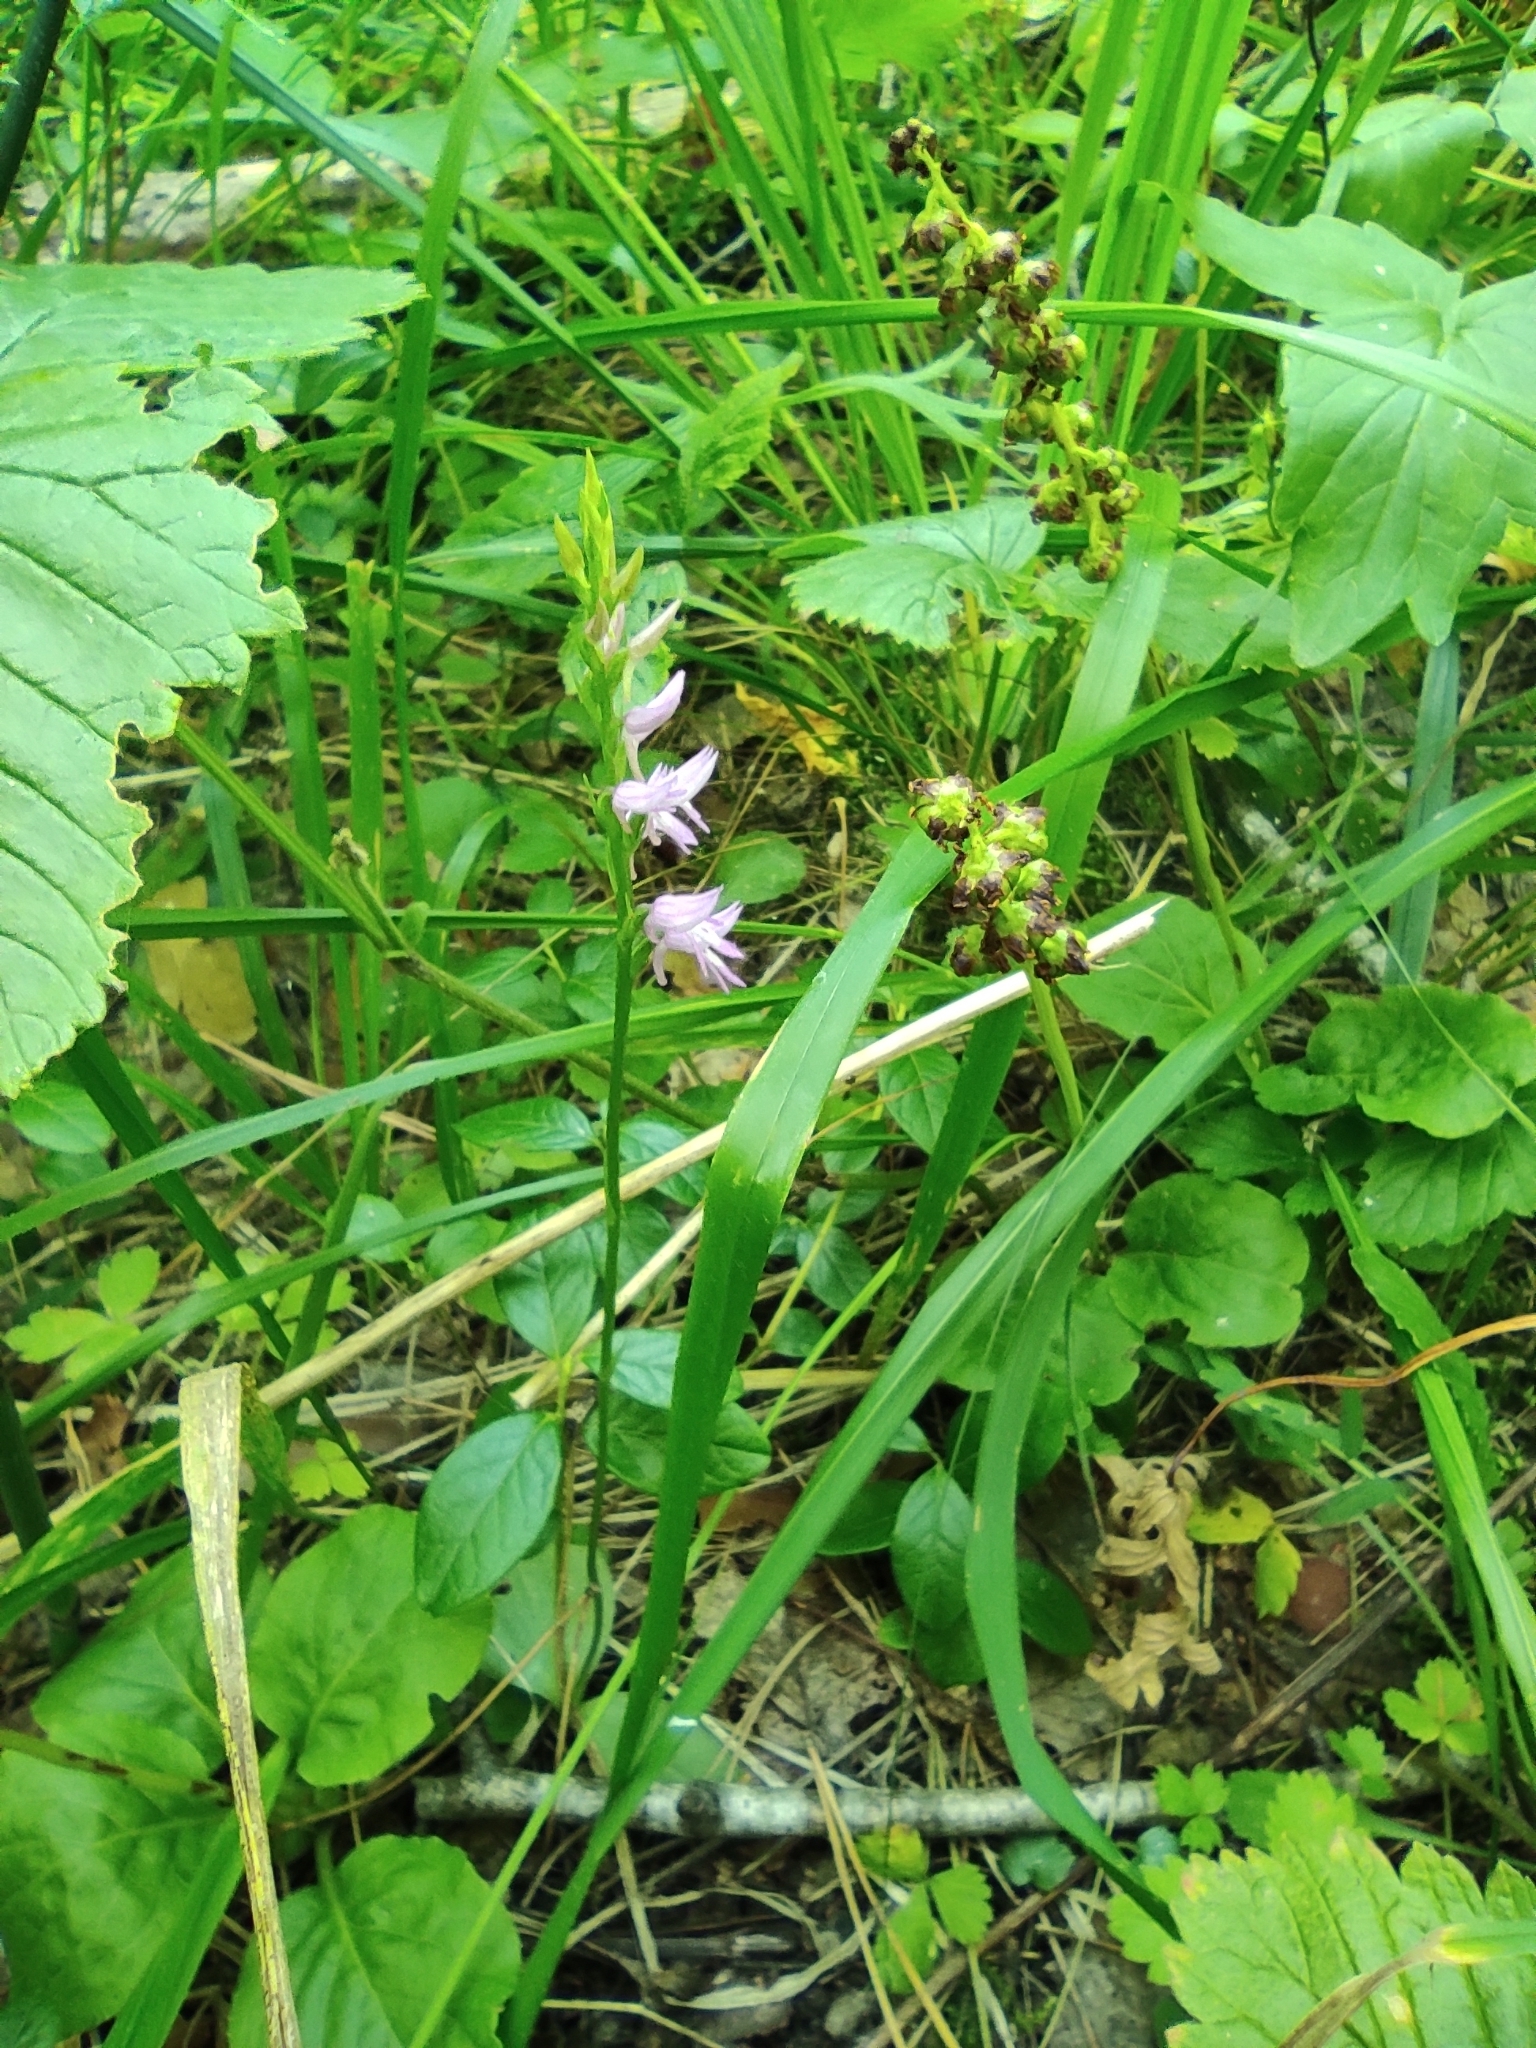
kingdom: Plantae
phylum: Tracheophyta
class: Liliopsida
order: Asparagales
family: Orchidaceae
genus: Hemipilia
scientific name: Hemipilia cucullata
